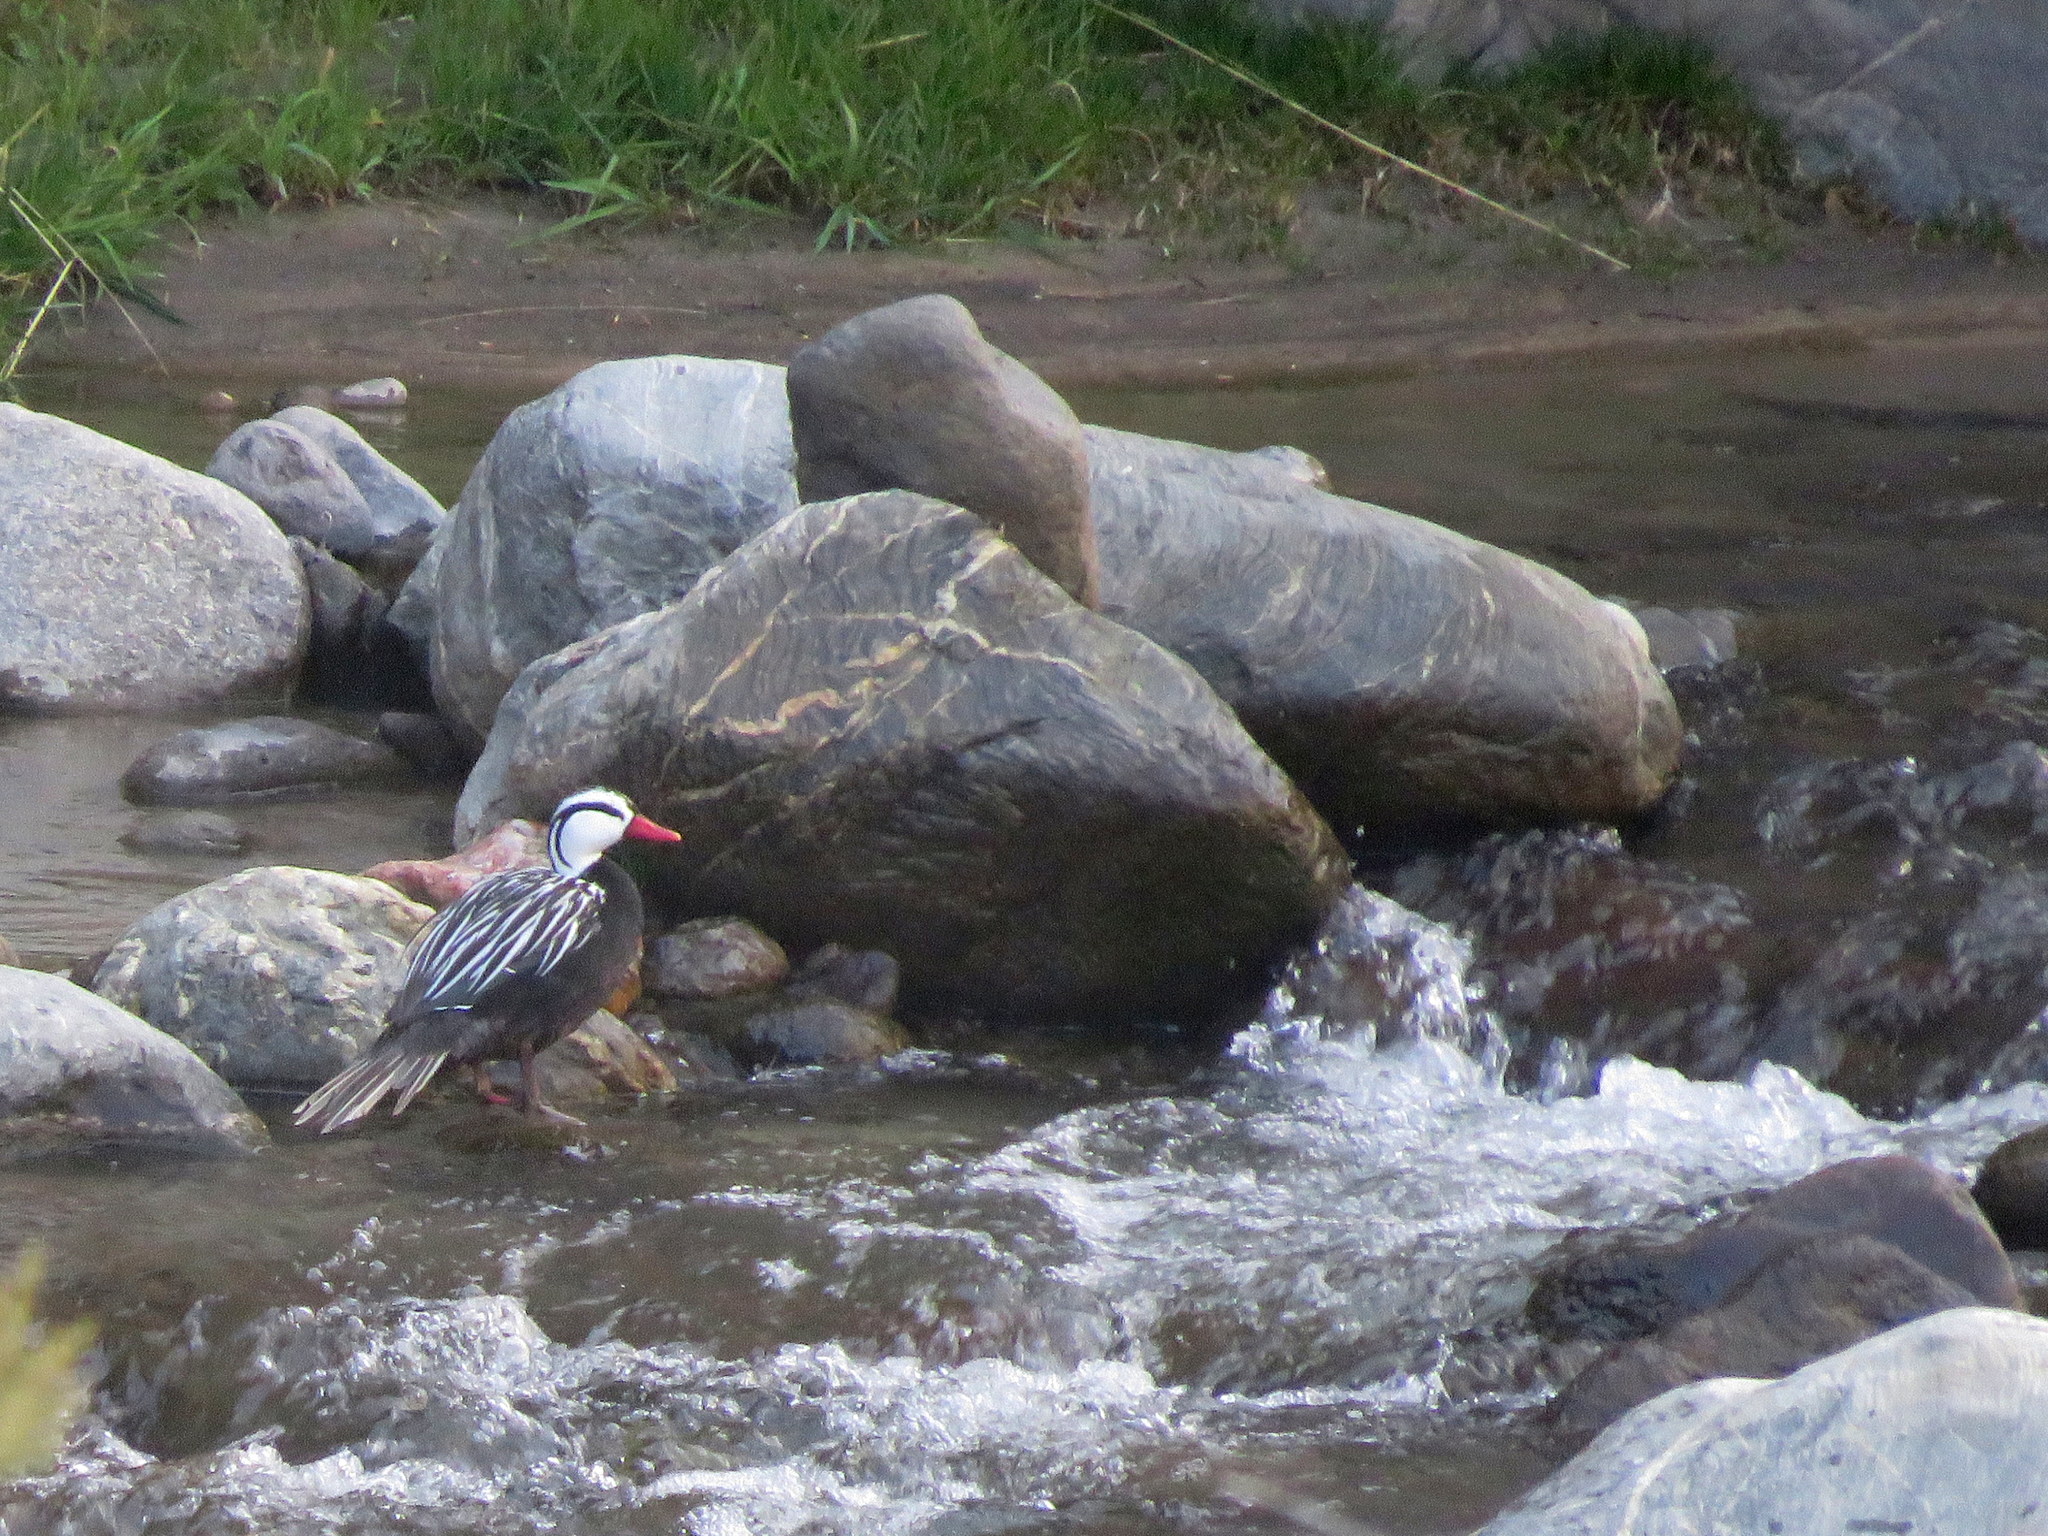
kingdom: Animalia
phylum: Chordata
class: Aves
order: Anseriformes
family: Anatidae
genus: Merganetta
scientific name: Merganetta armata
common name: Torrent duck
